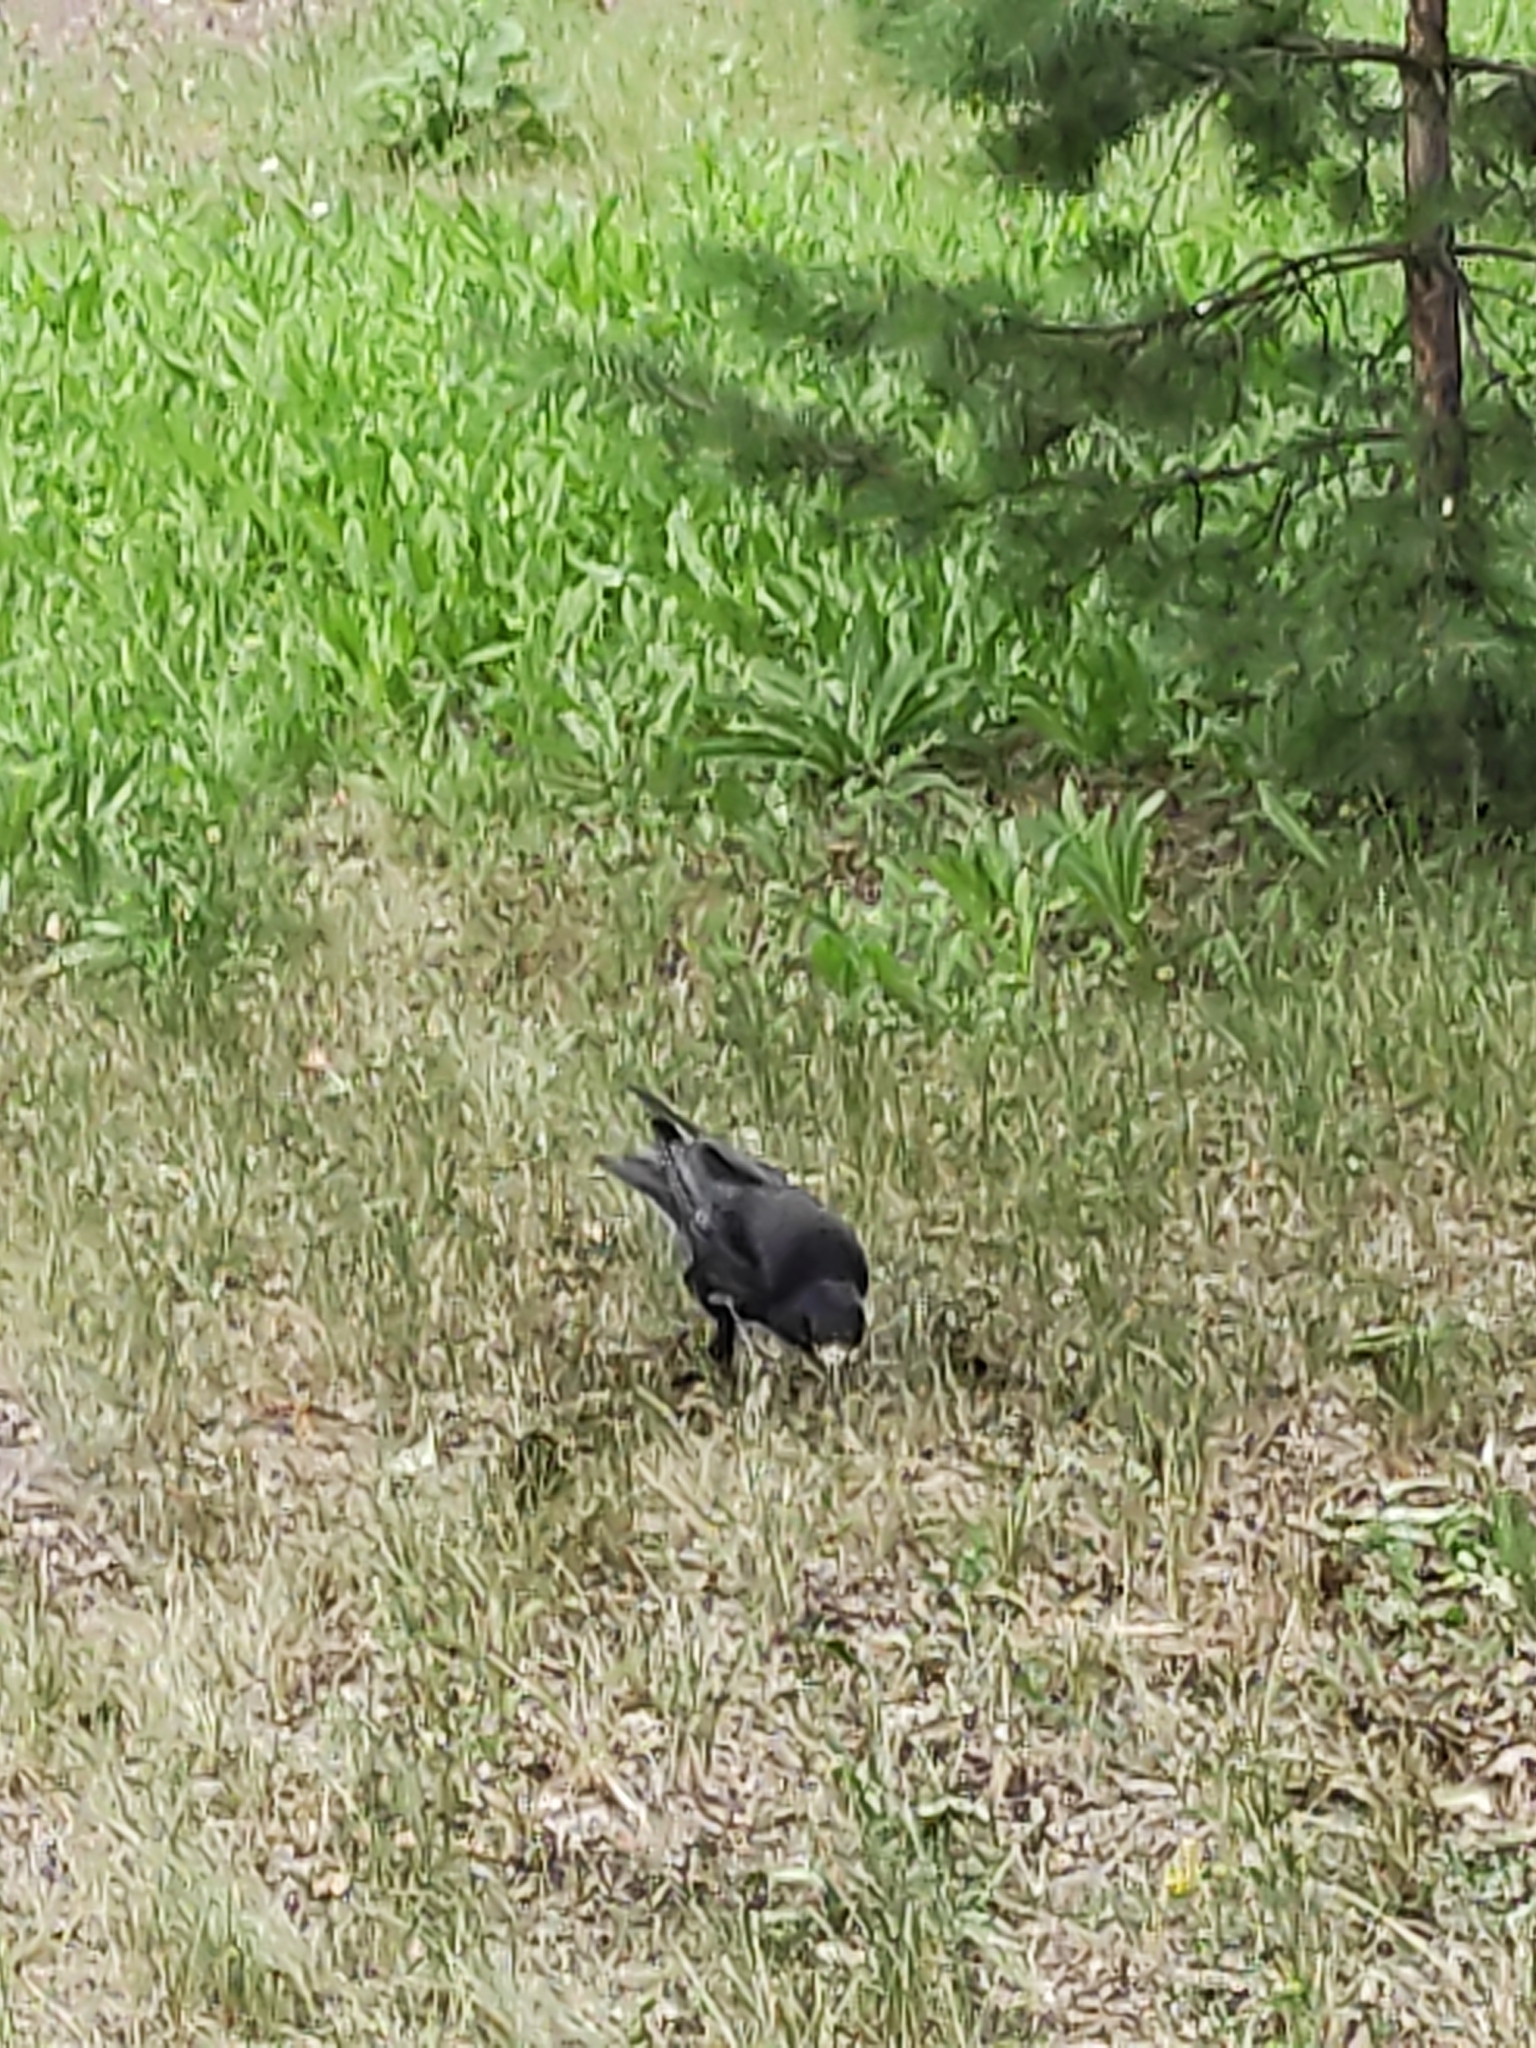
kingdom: Animalia
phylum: Chordata
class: Aves
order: Passeriformes
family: Corvidae
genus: Corvus
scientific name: Corvus frugilegus
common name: Rook
